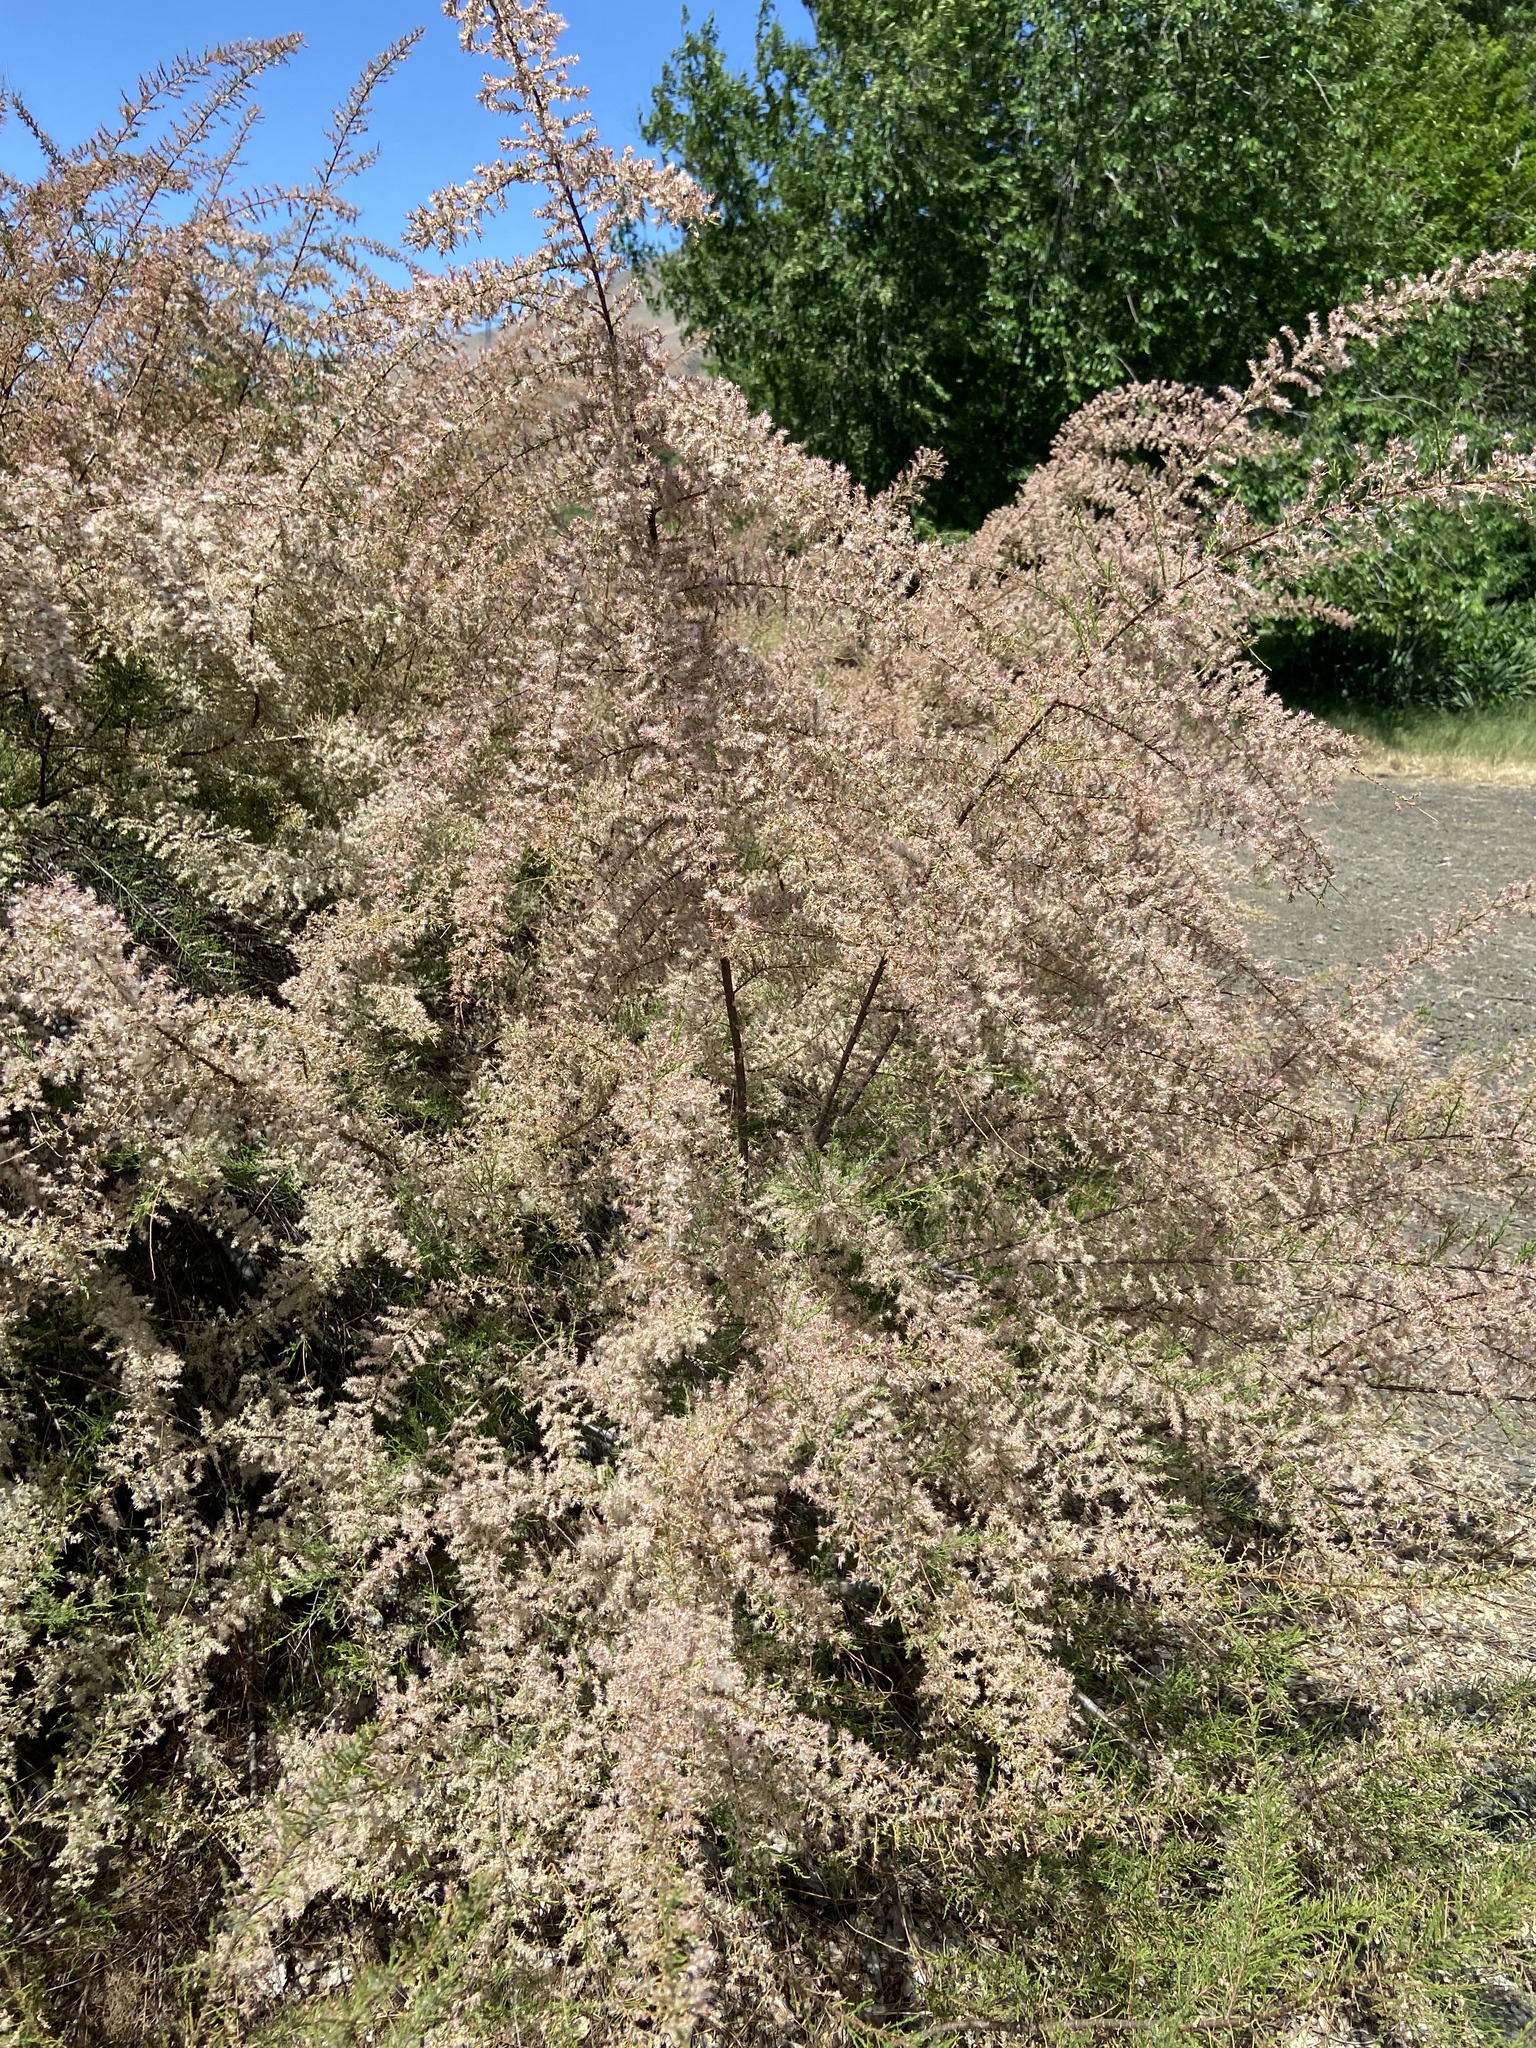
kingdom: Plantae
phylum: Tracheophyta
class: Magnoliopsida
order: Caryophyllales
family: Tamaricaceae
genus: Tamarix
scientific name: Tamarix
